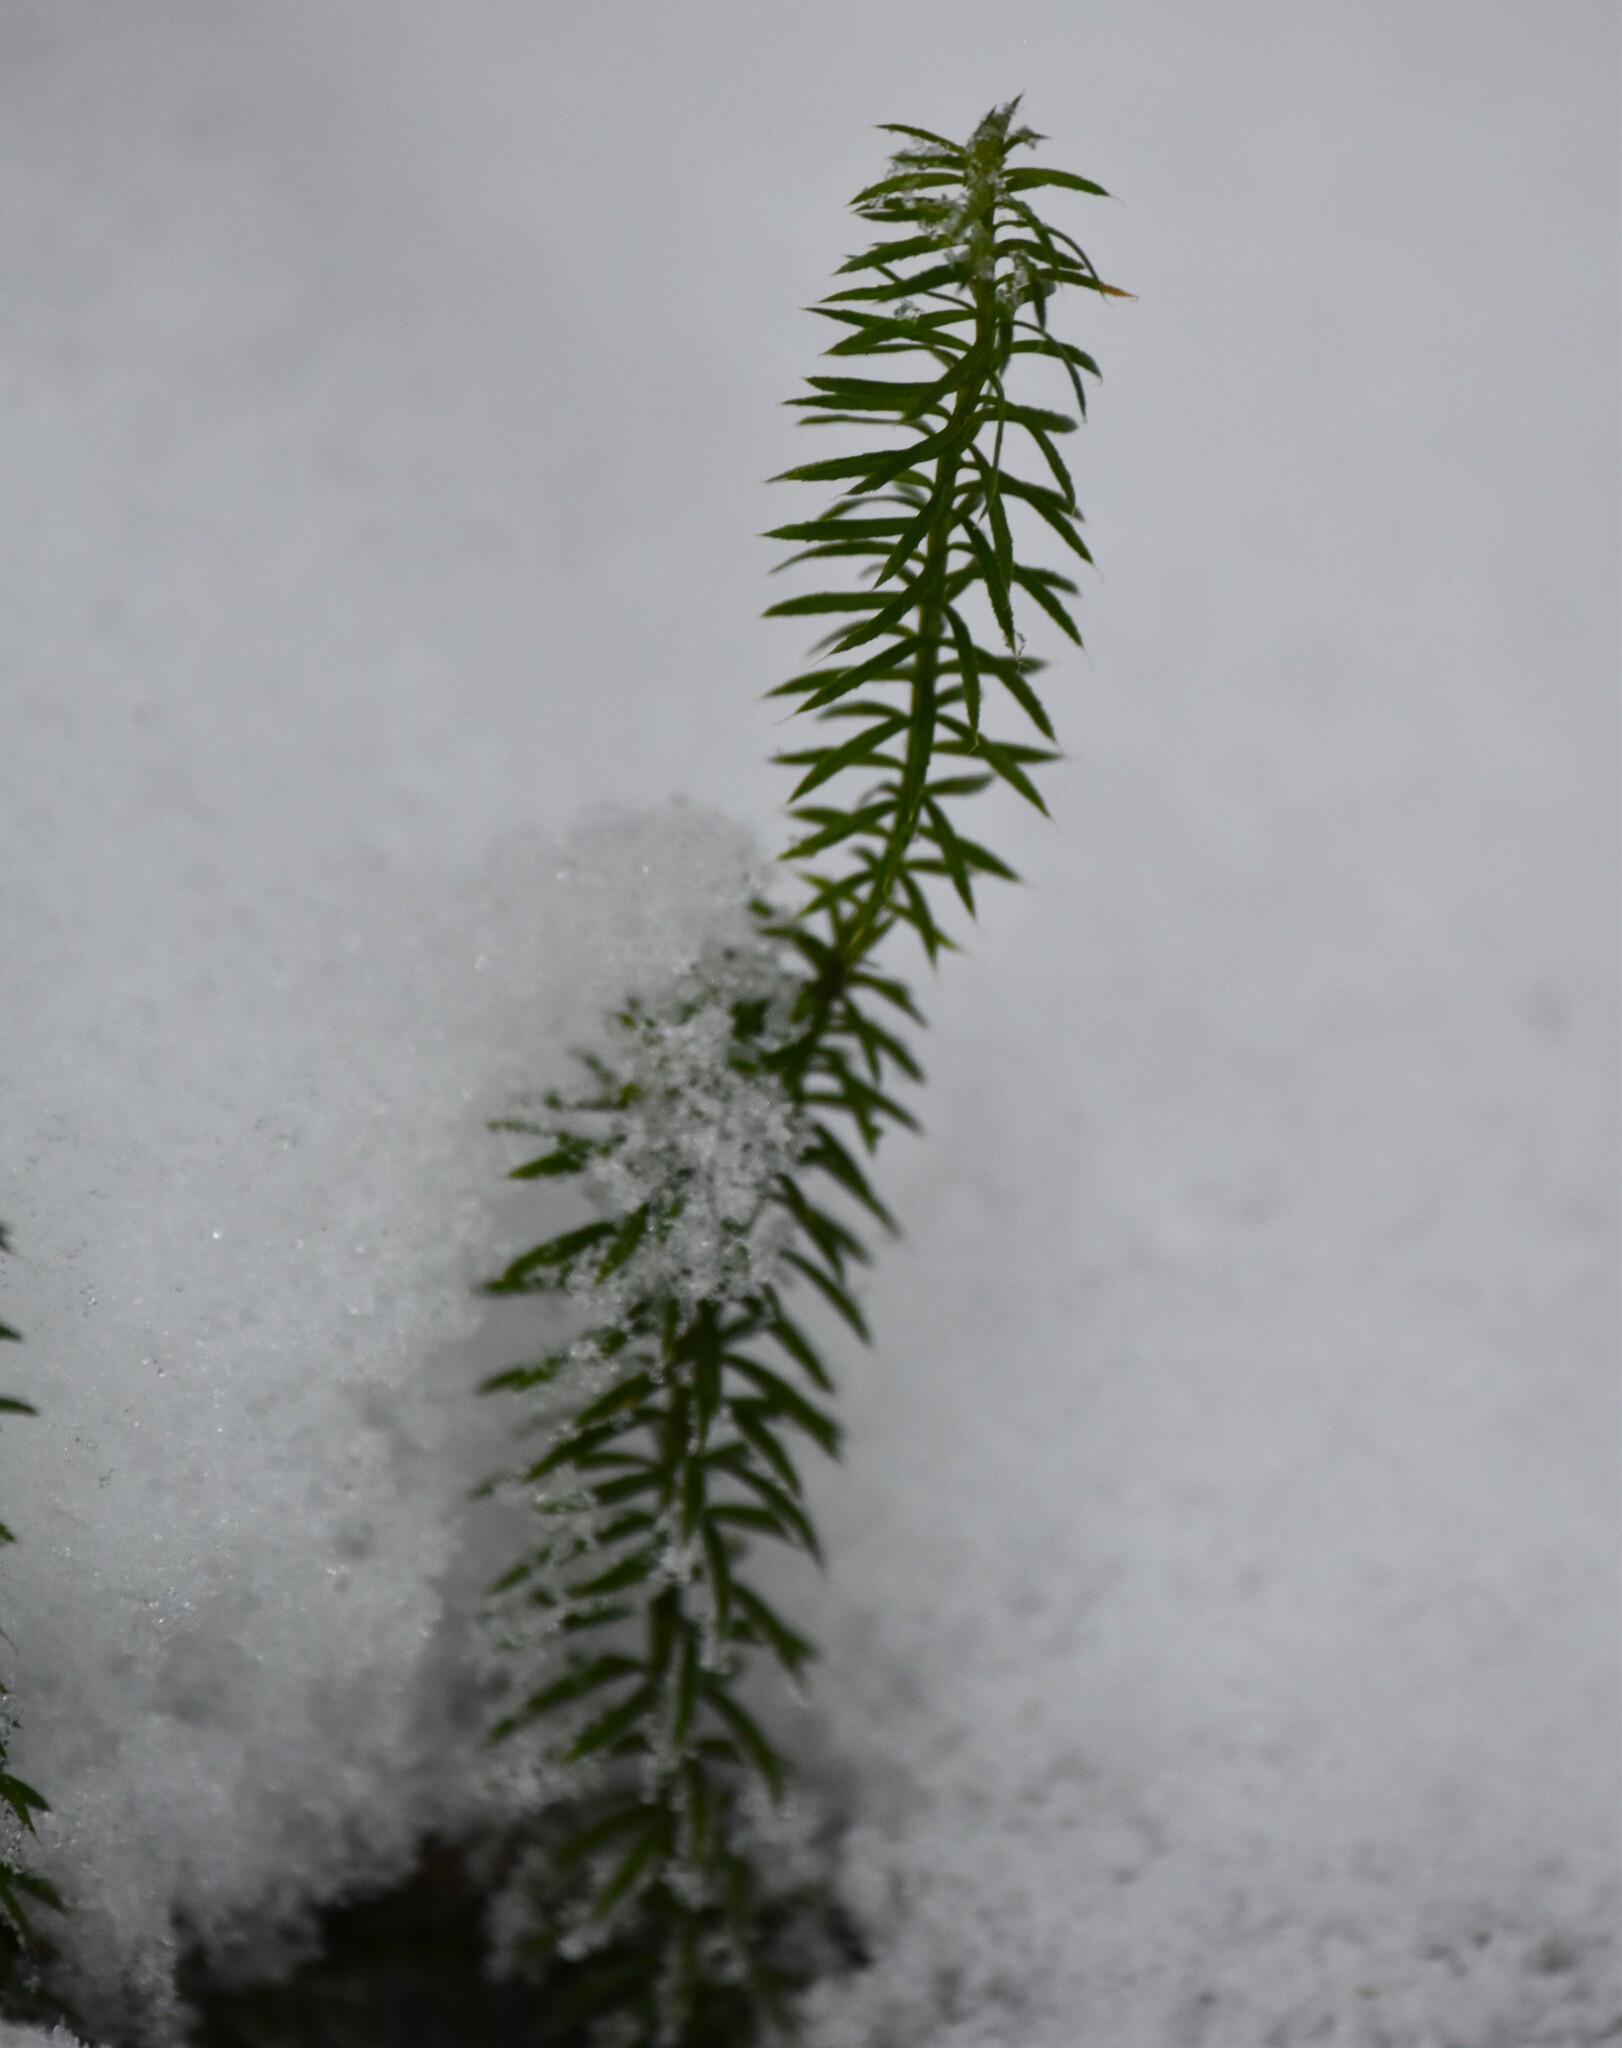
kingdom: Plantae
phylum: Tracheophyta
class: Lycopodiopsida
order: Lycopodiales
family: Lycopodiaceae
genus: Spinulum
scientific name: Spinulum annotinum
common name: Interrupted club-moss
